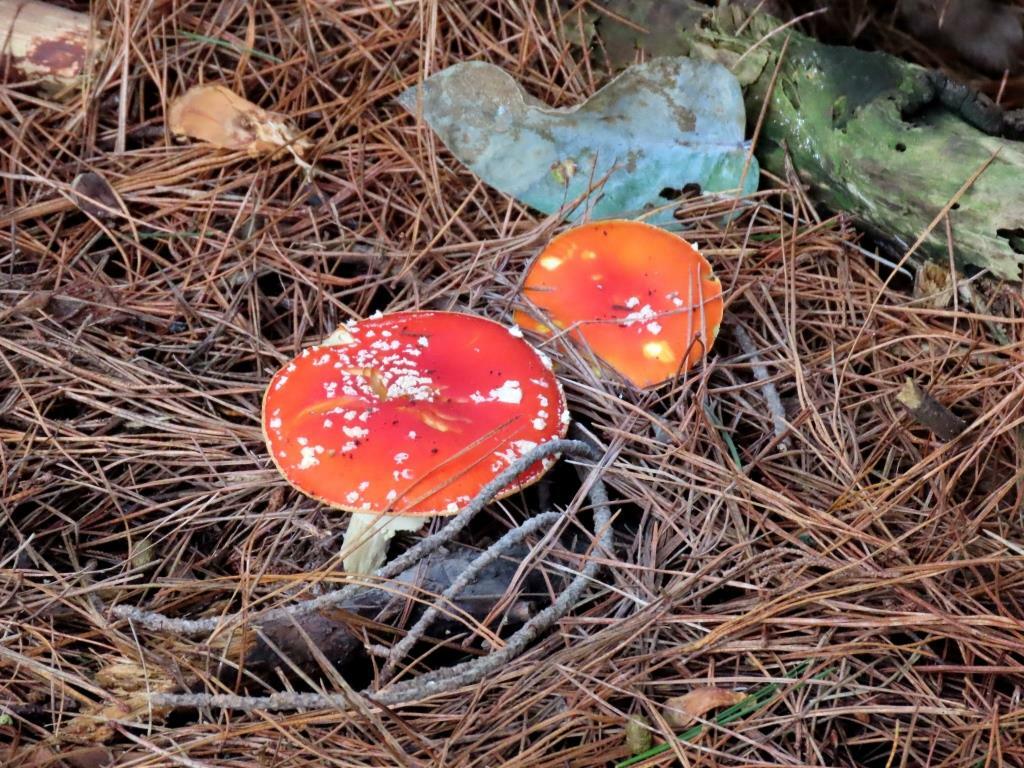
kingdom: Fungi
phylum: Basidiomycota
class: Agaricomycetes
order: Agaricales
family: Amanitaceae
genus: Amanita
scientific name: Amanita muscaria
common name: Fly agaric
